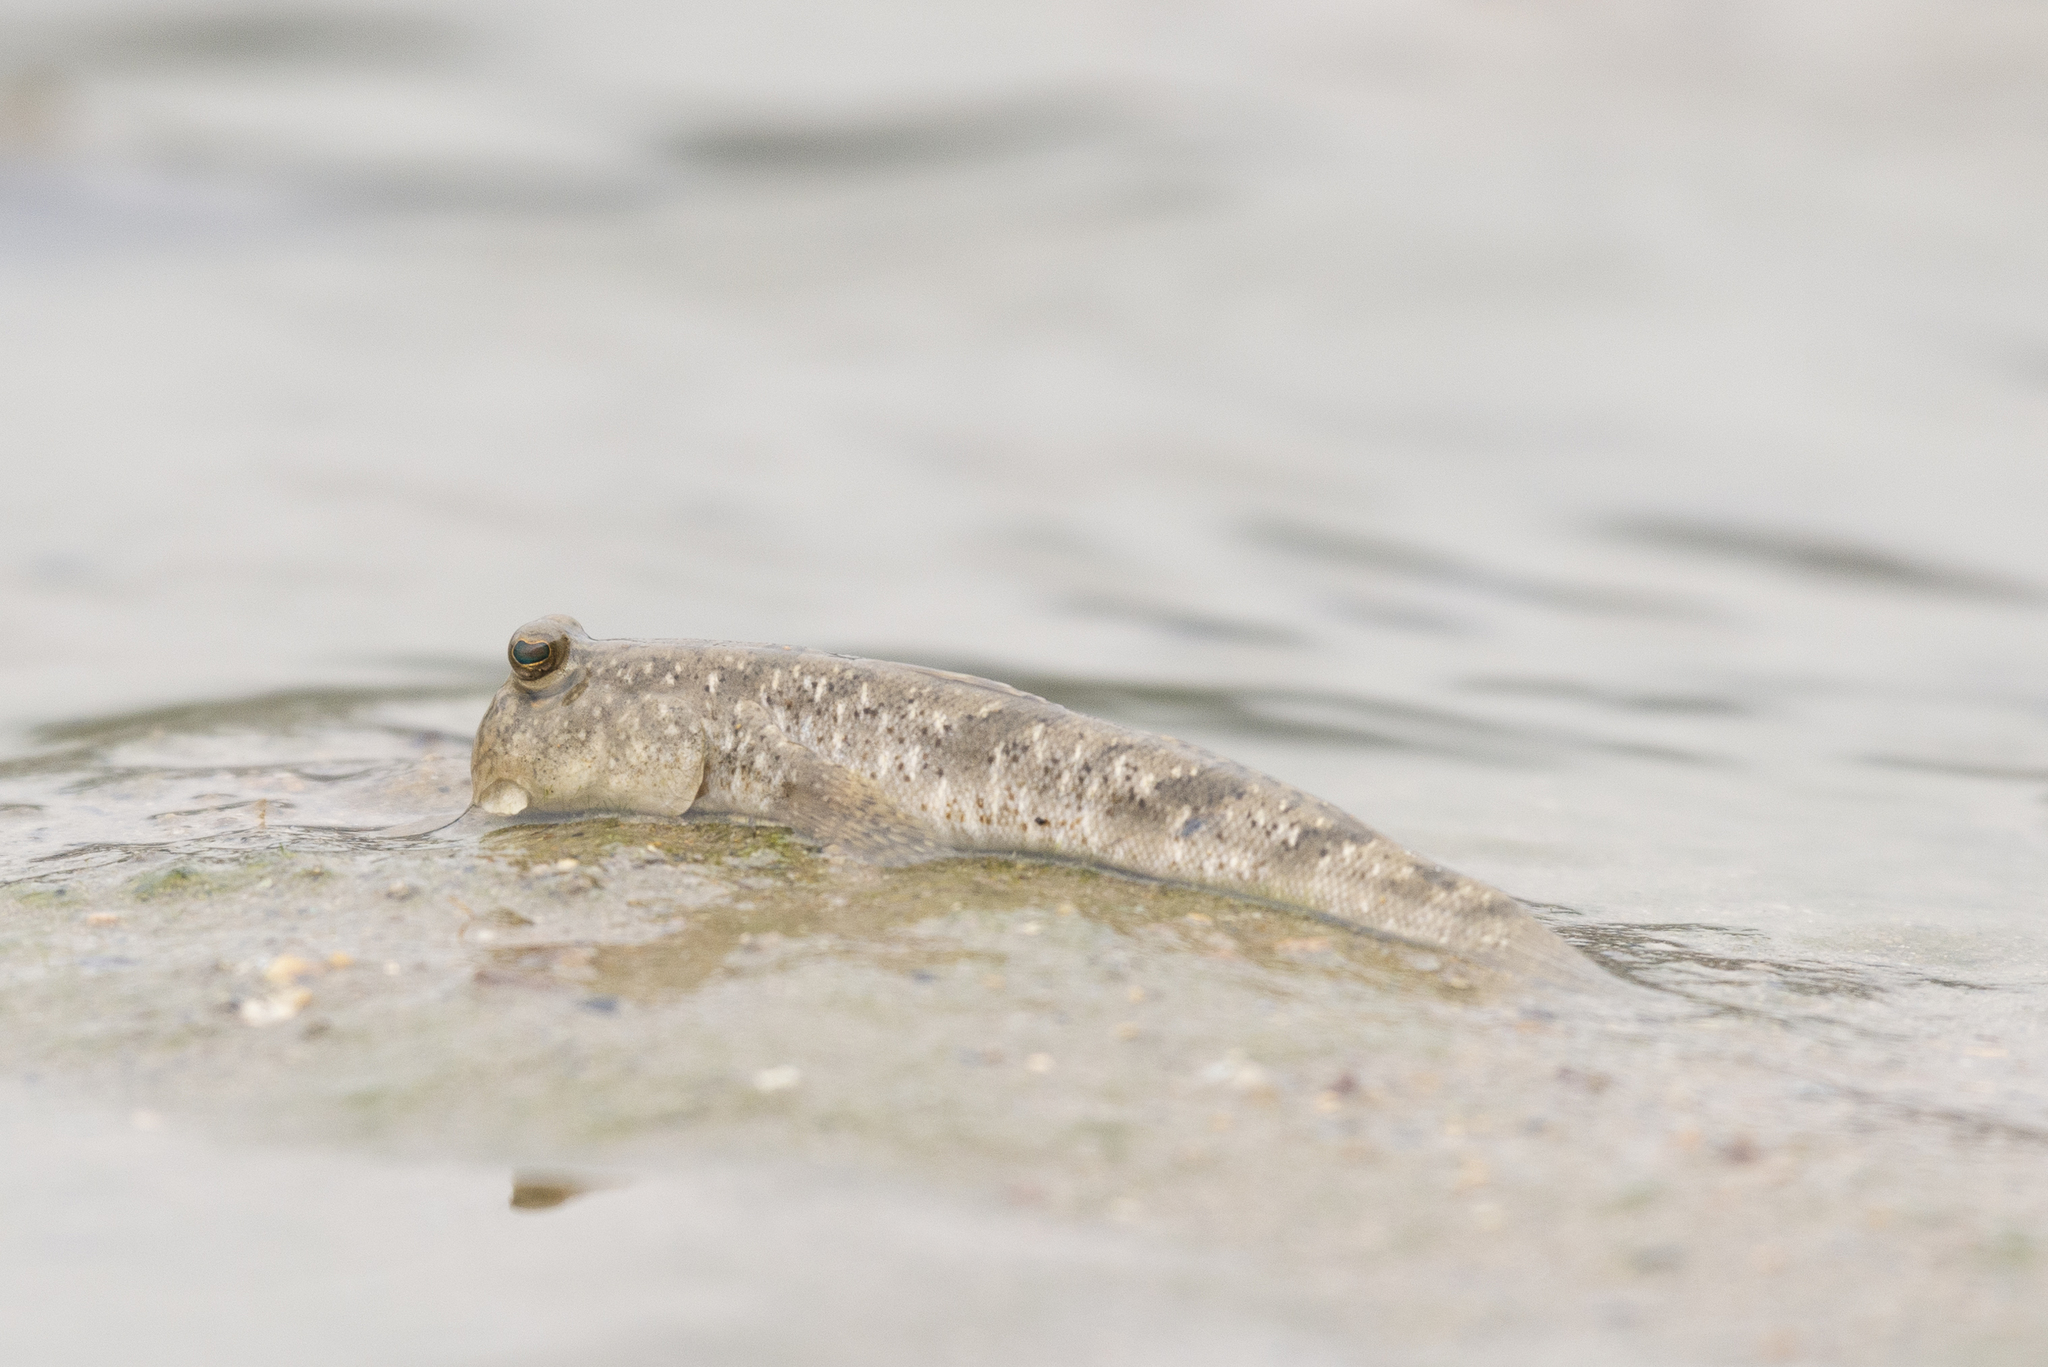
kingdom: Animalia
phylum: Chordata
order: Perciformes
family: Gobiidae
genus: Periophthalmus
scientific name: Periophthalmus modestus
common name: Black goby
